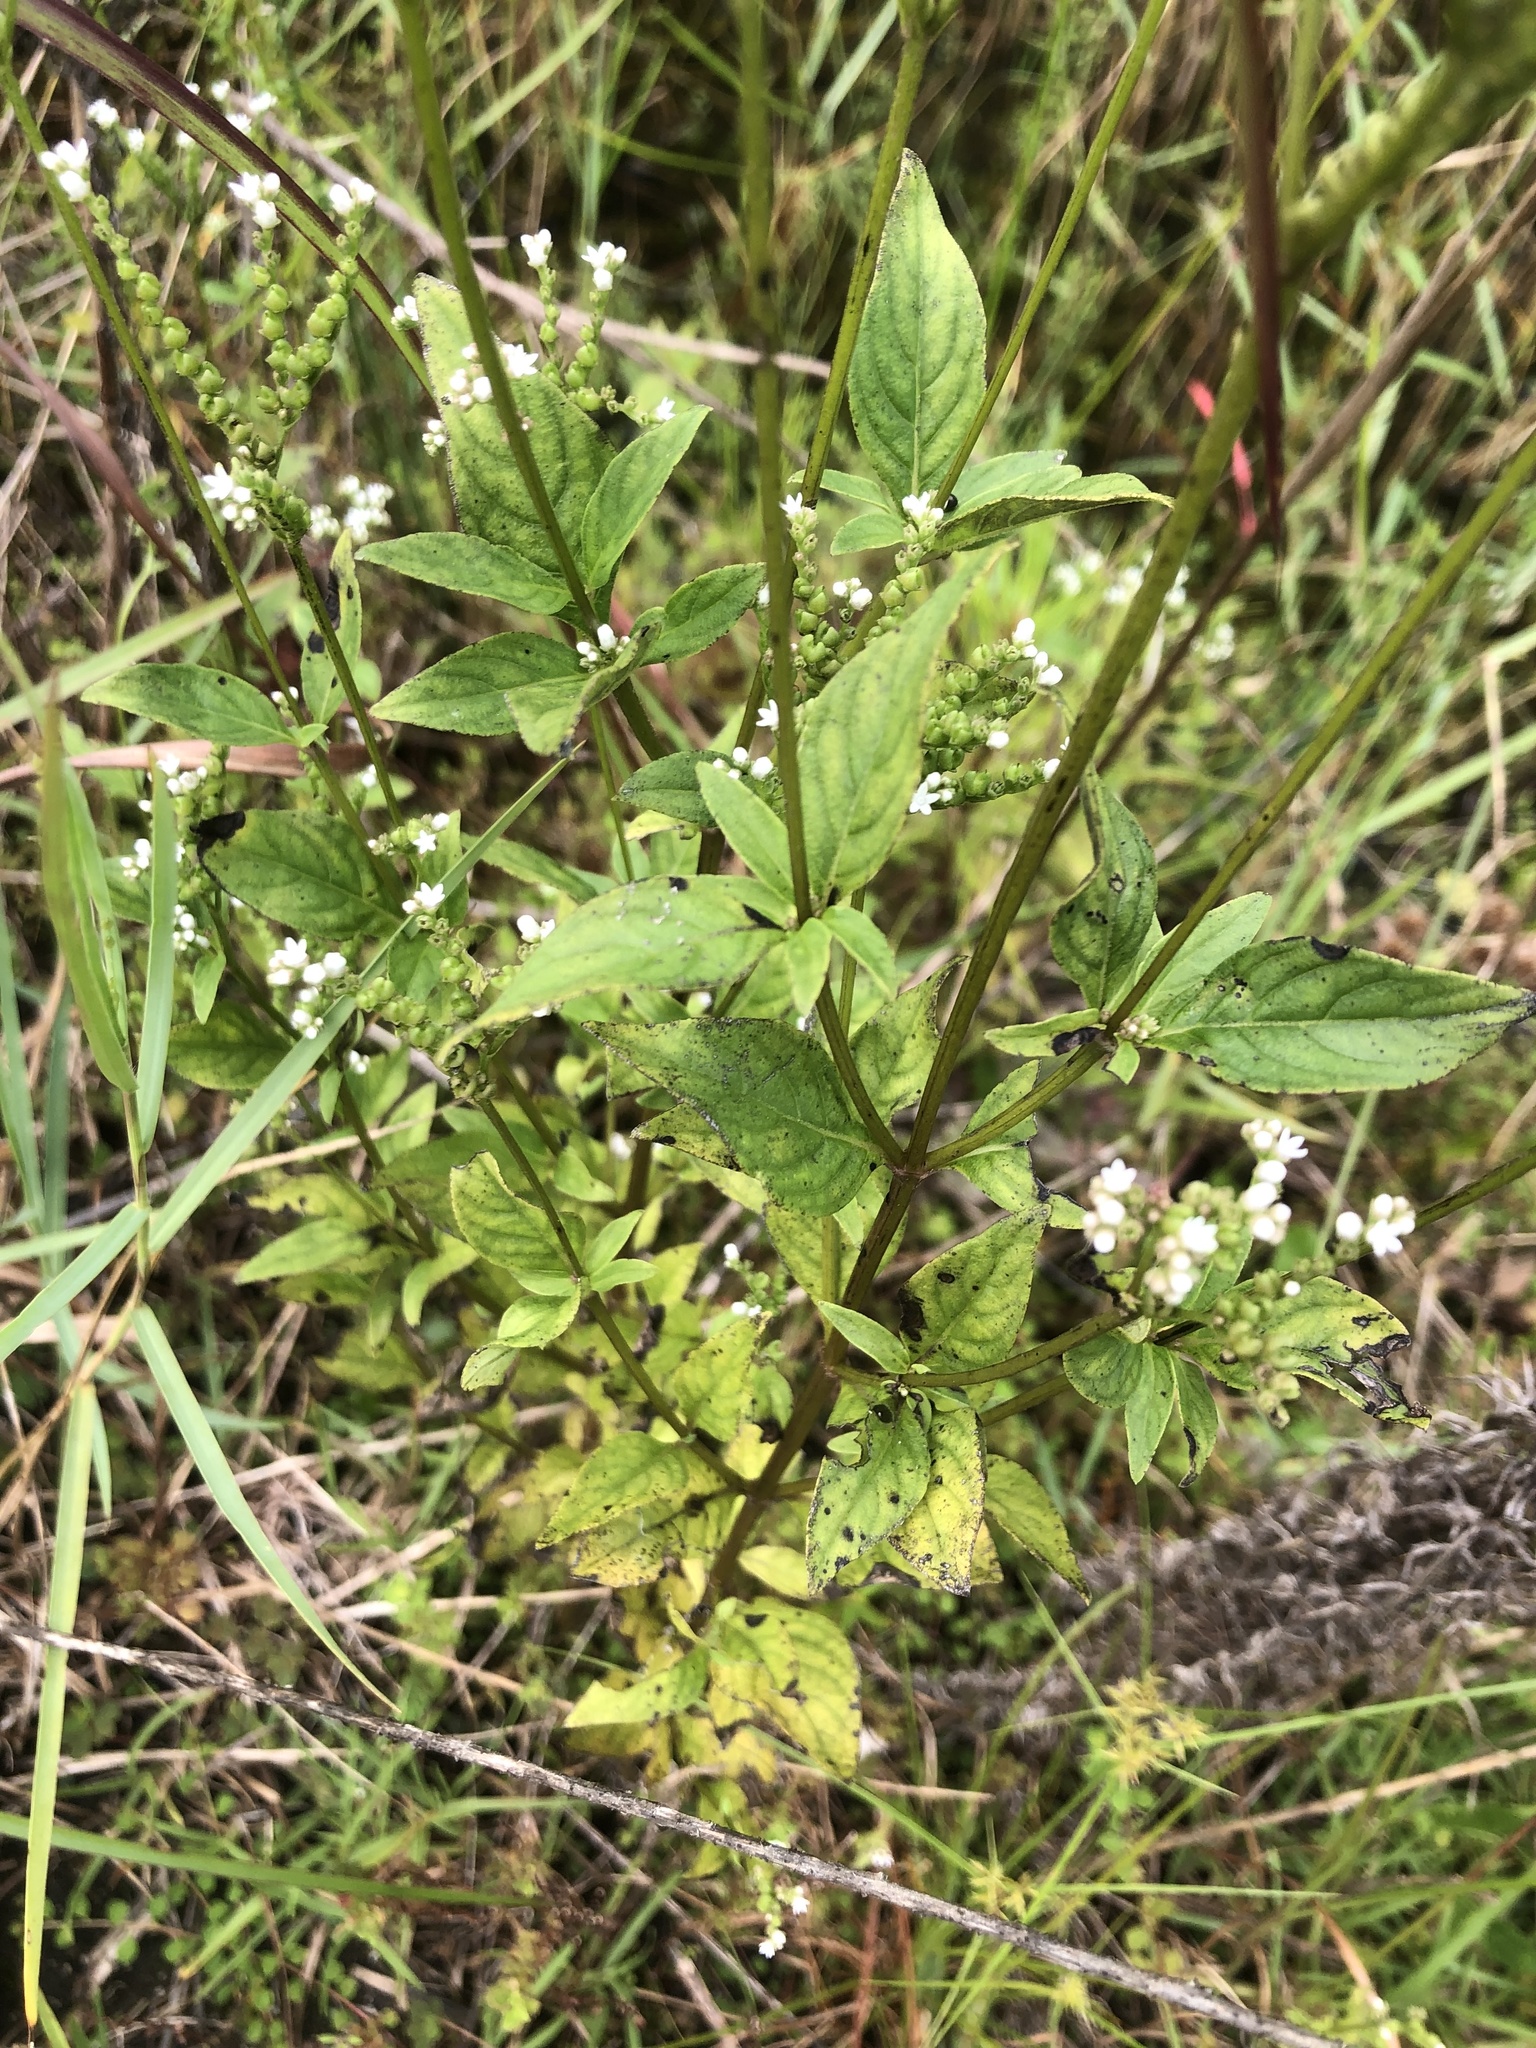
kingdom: Plantae
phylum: Tracheophyta
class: Magnoliopsida
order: Gentianales
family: Loganiaceae
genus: Mitreola
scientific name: Mitreola petiolata
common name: Lax hornpod
